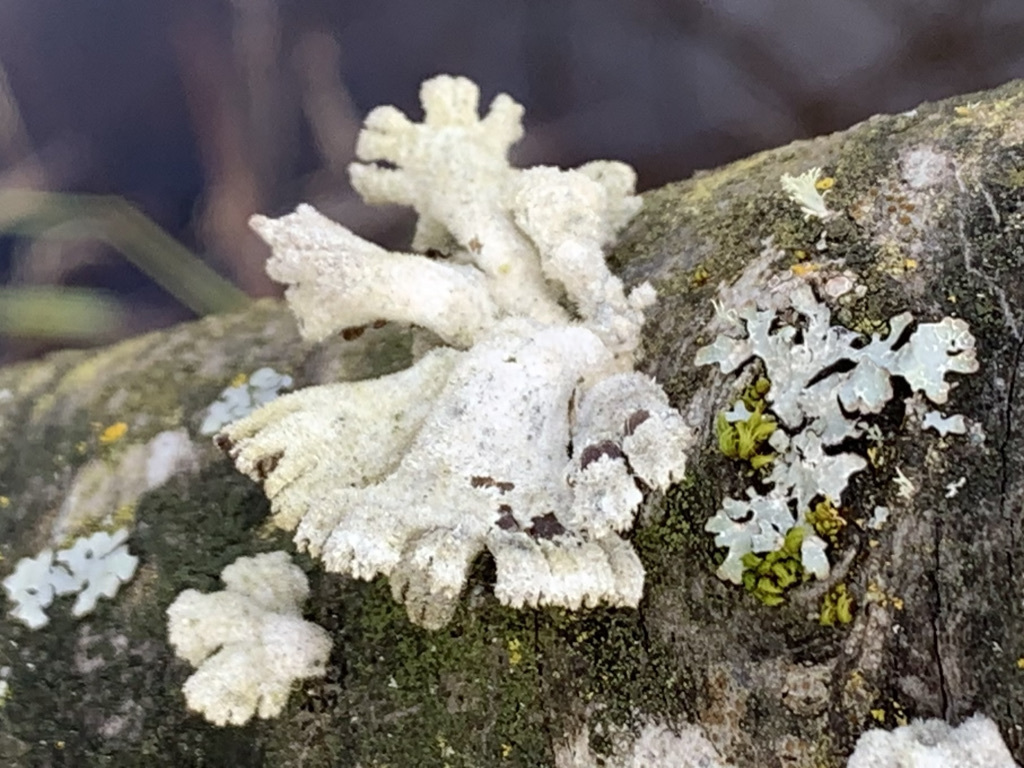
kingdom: Fungi
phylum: Basidiomycota
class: Agaricomycetes
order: Agaricales
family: Schizophyllaceae
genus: Schizophyllum
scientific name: Schizophyllum commune
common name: Common porecrust
